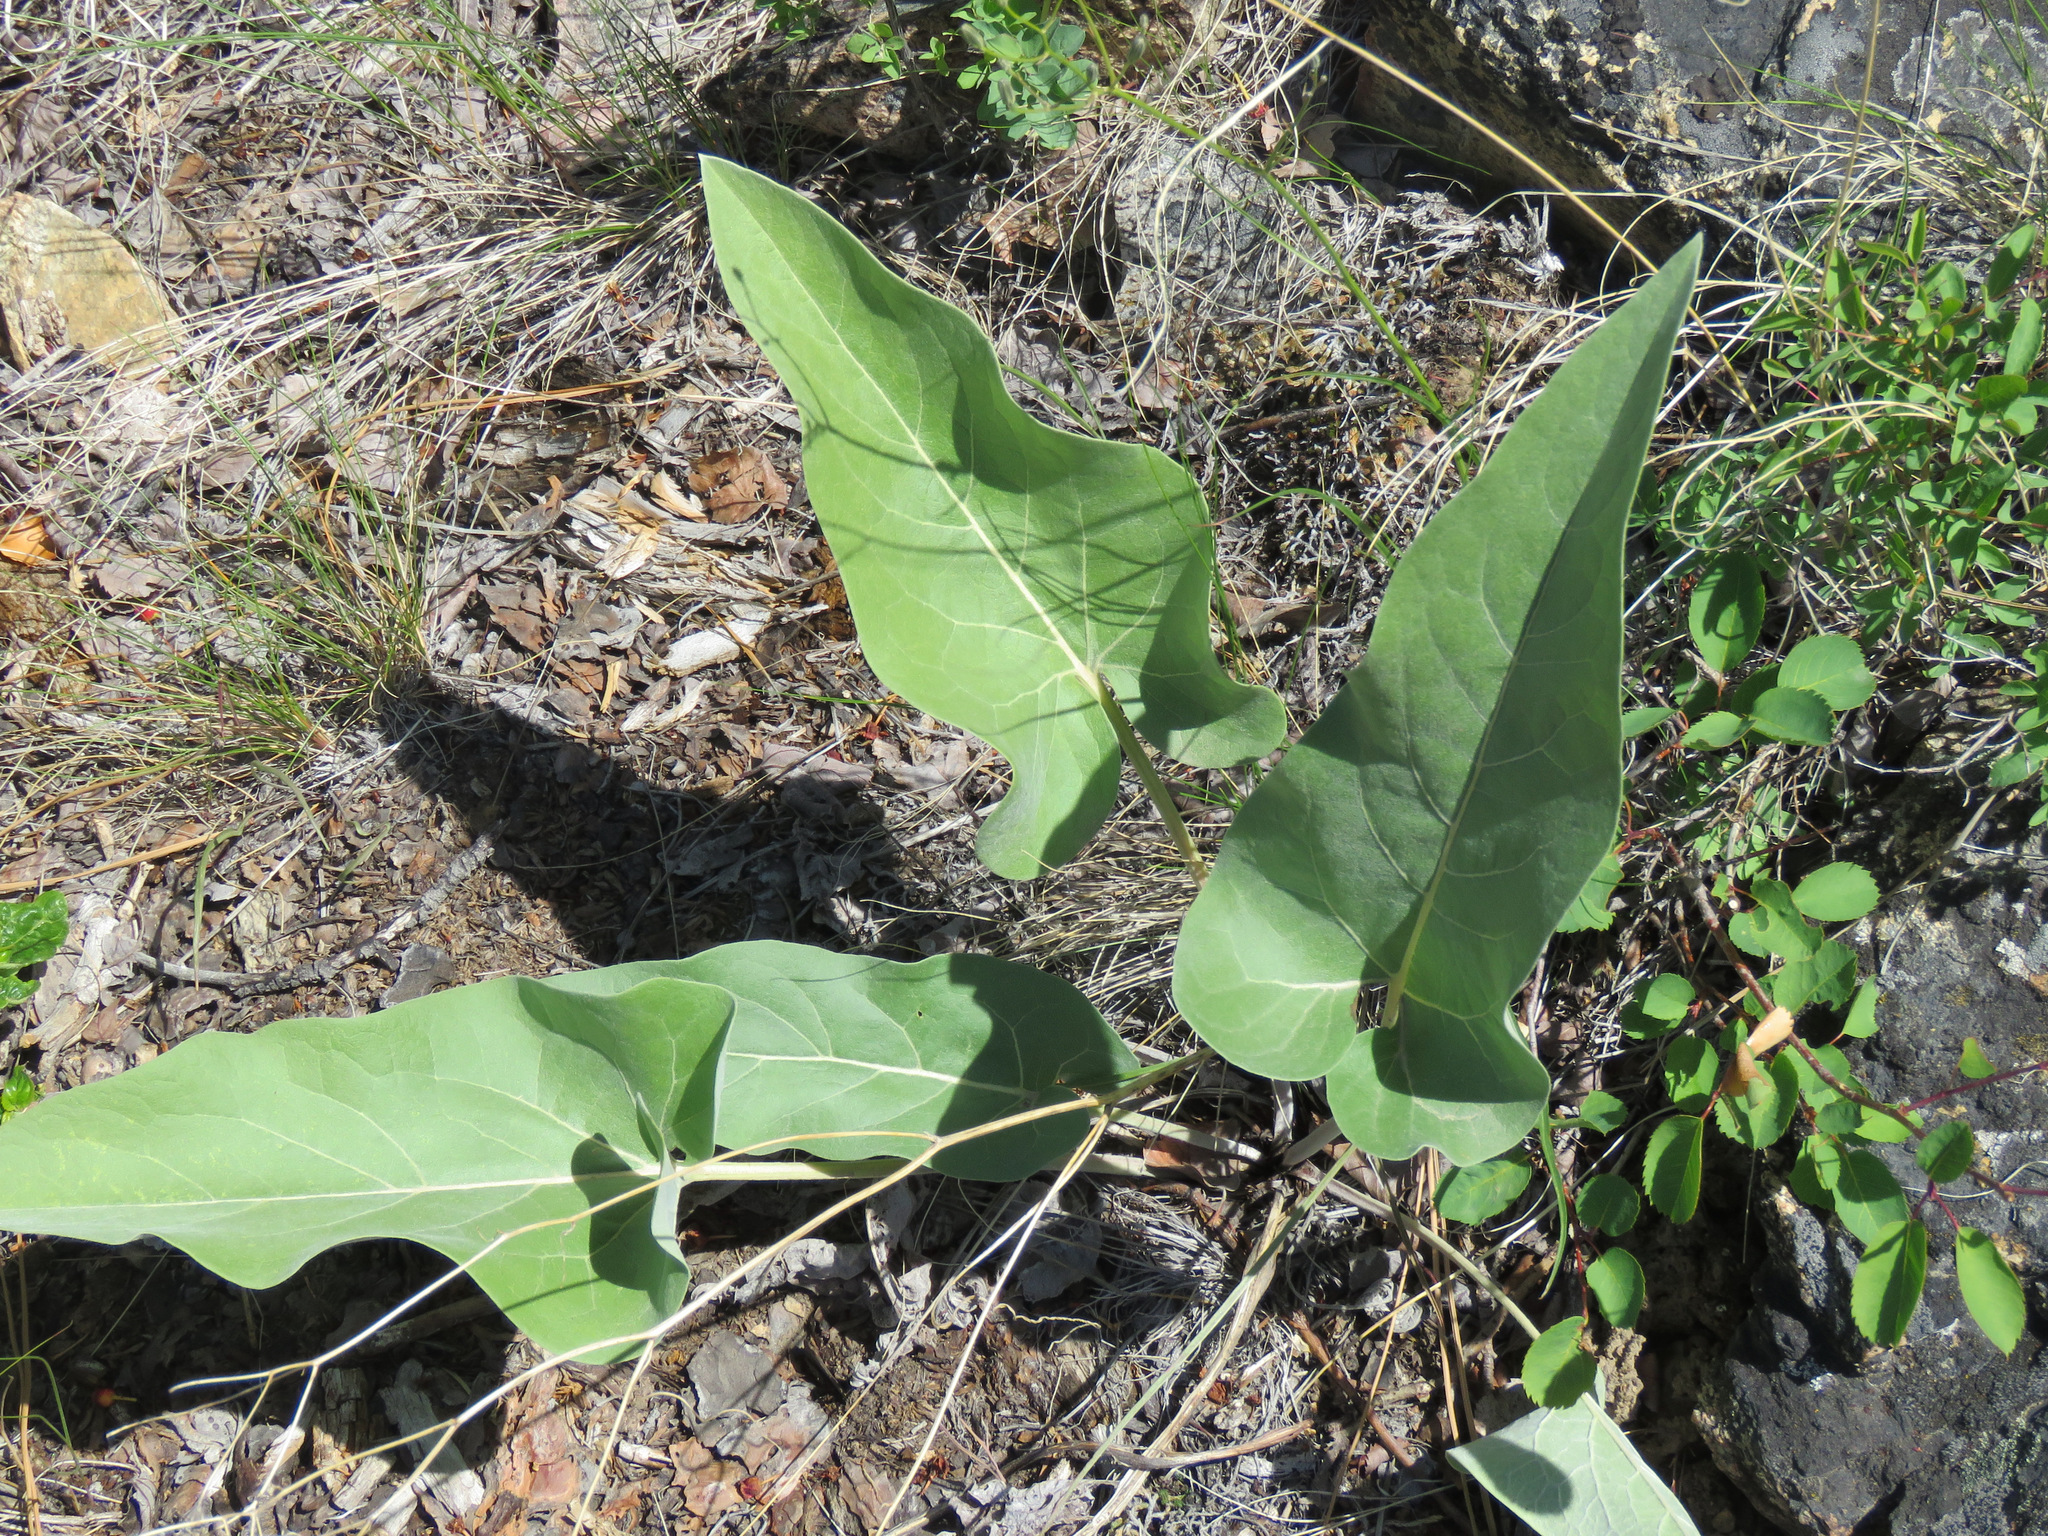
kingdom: Plantae
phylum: Tracheophyta
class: Magnoliopsida
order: Asterales
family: Asteraceae
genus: Wyethia
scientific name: Wyethia sagittata
